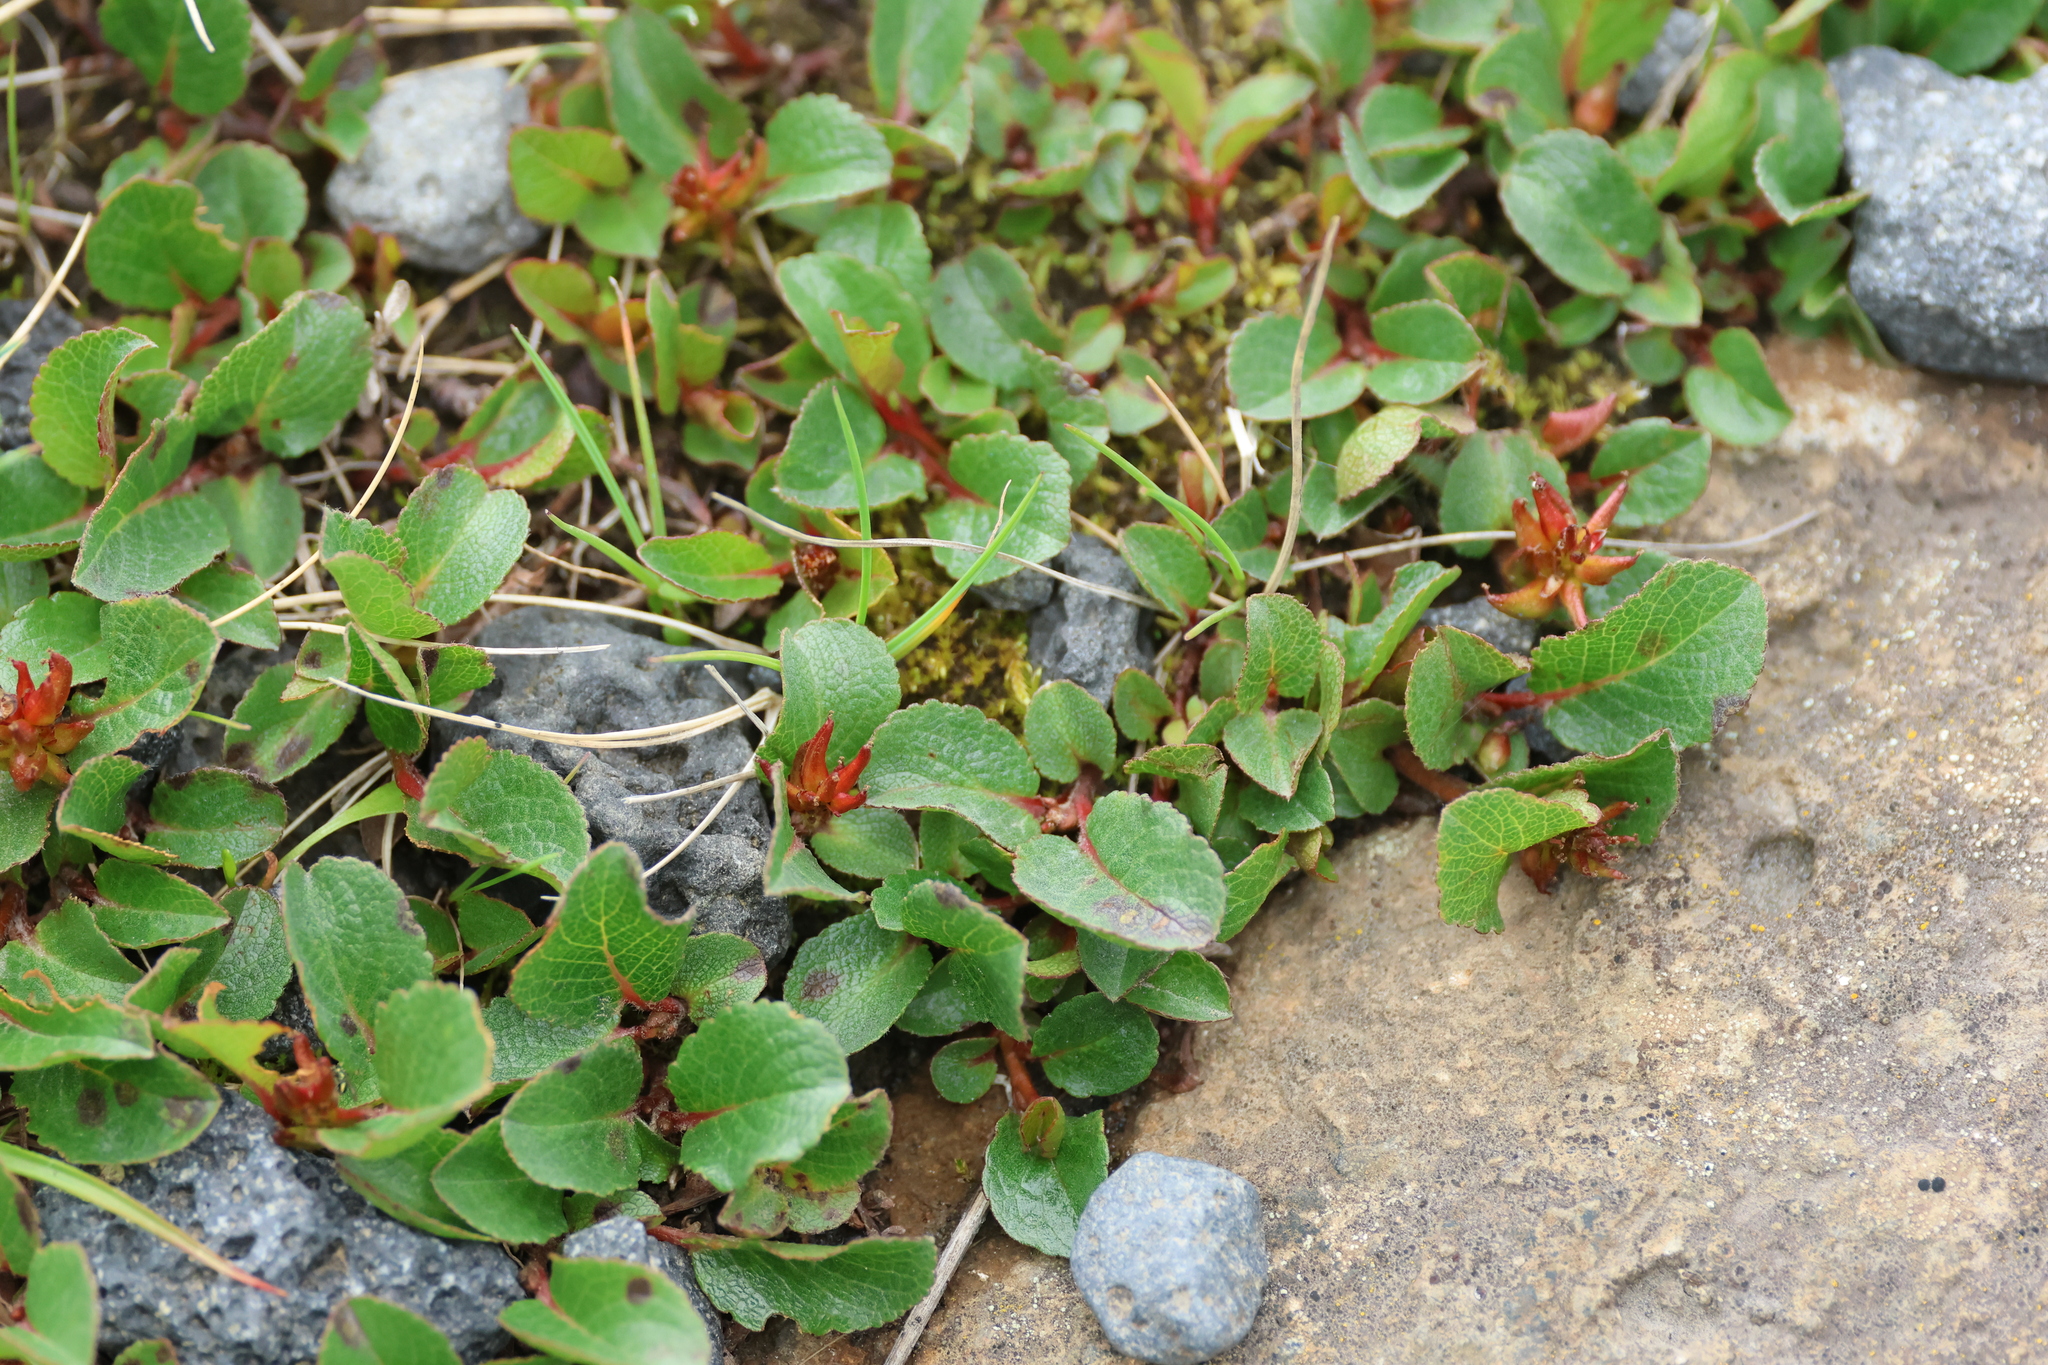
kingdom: Plantae
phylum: Tracheophyta
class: Magnoliopsida
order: Malpighiales
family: Salicaceae
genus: Salix
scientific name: Salix herbacea
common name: Dwarf willow
